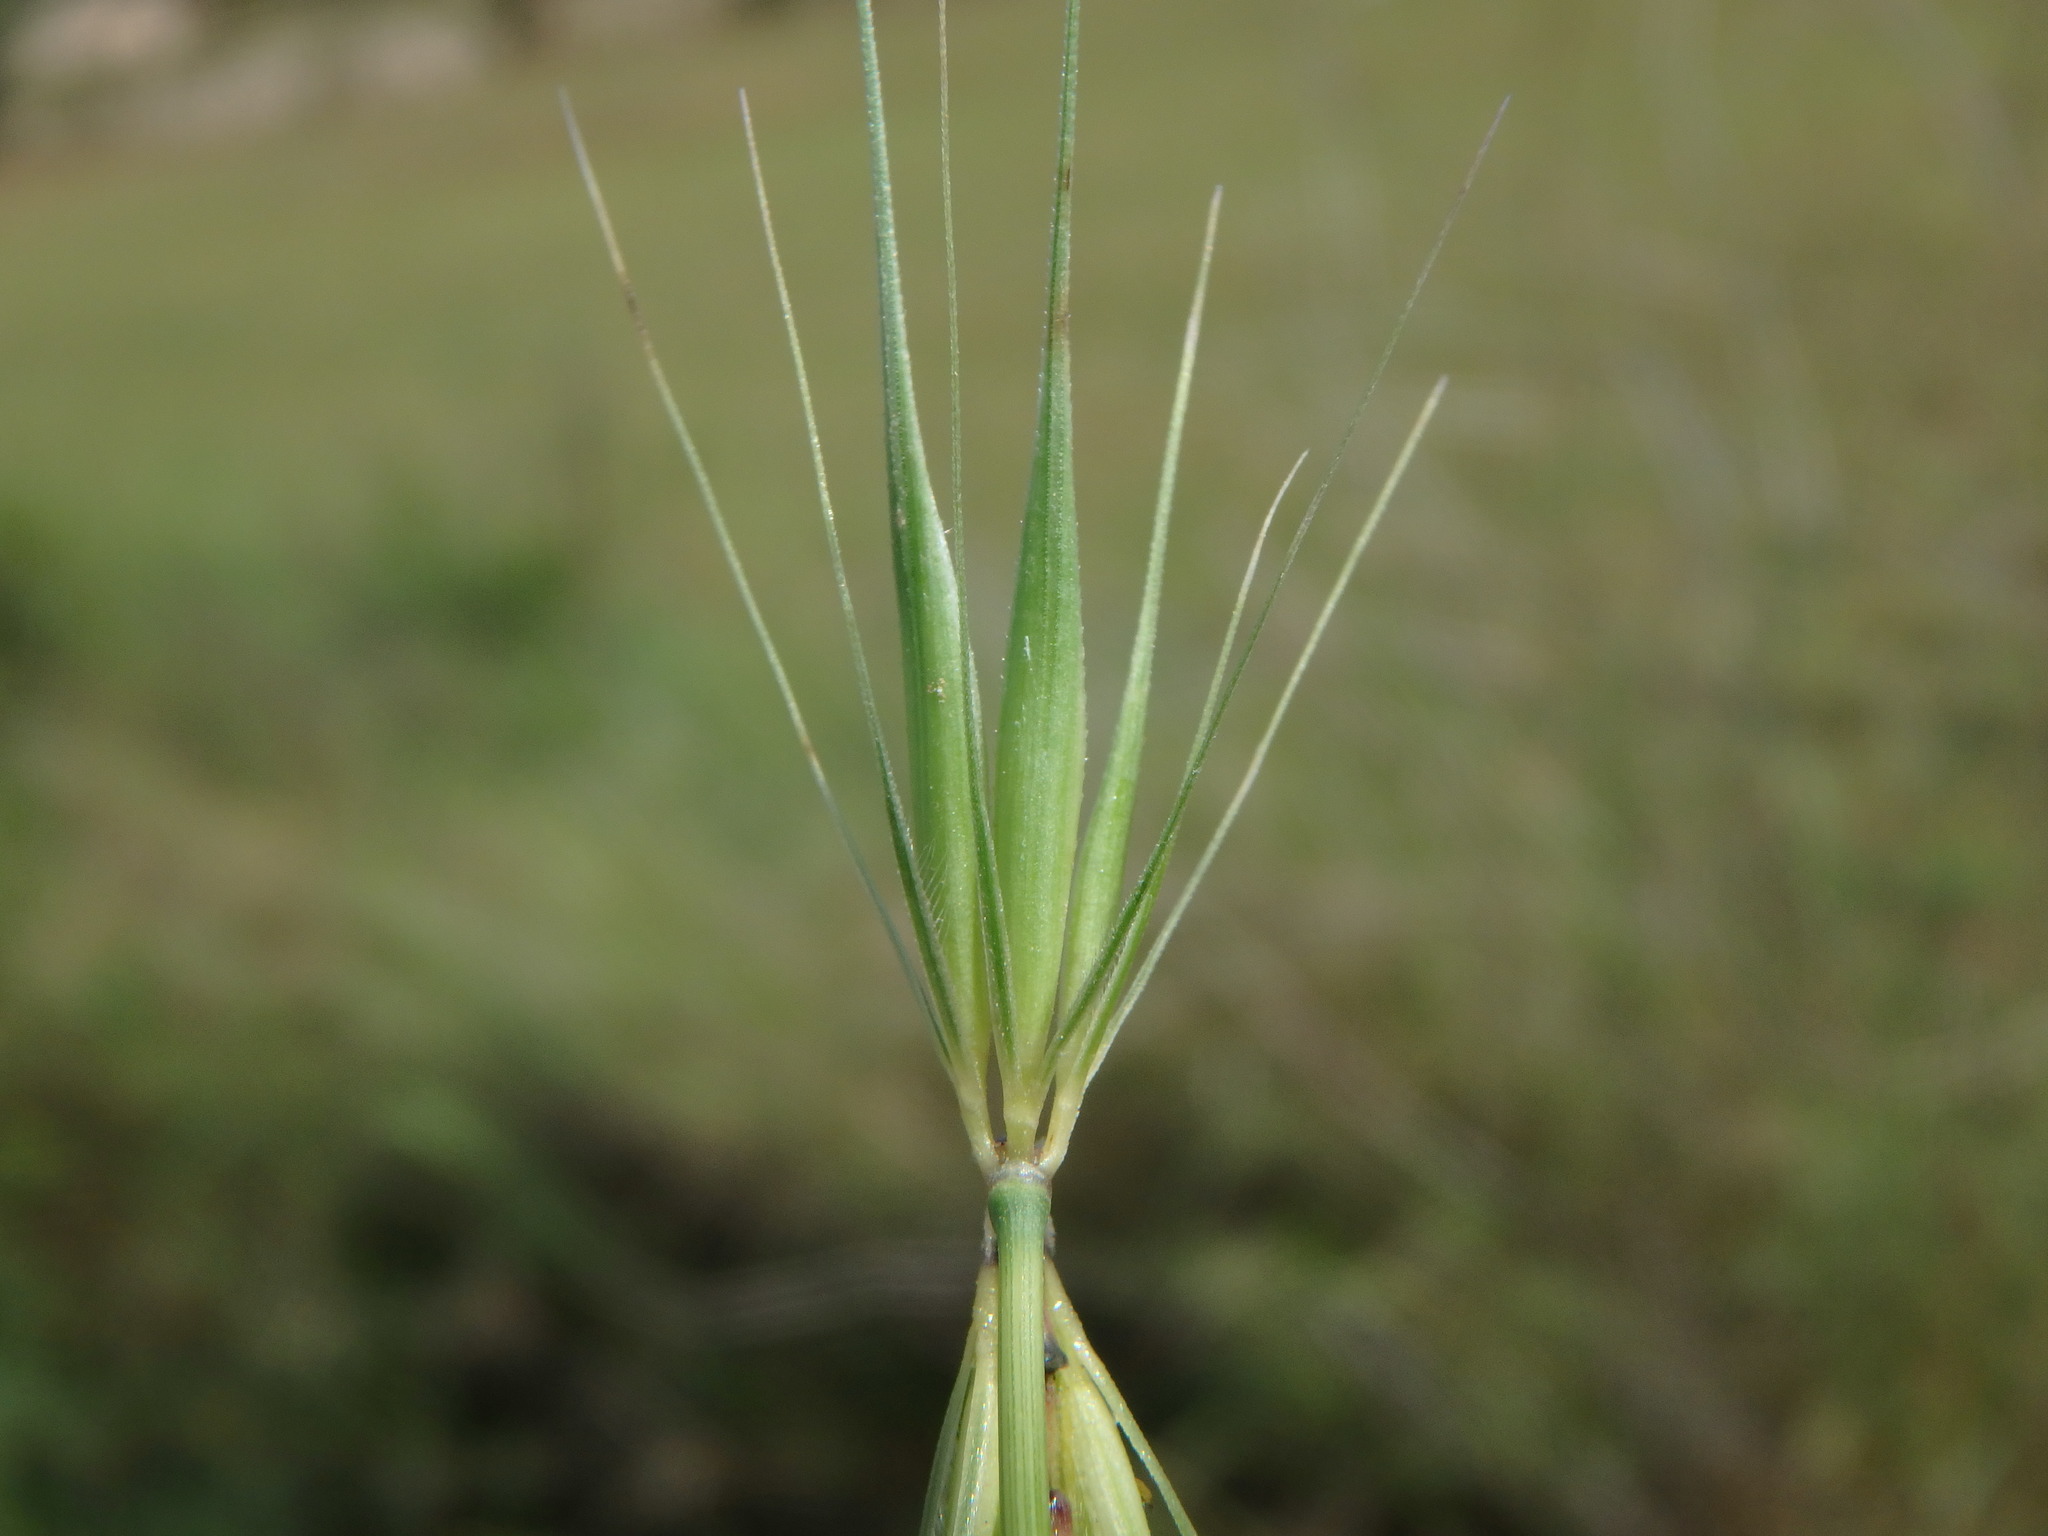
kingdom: Plantae
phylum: Tracheophyta
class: Liliopsida
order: Poales
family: Poaceae
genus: Hordeum
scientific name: Hordeum murinum
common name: Wall barley
